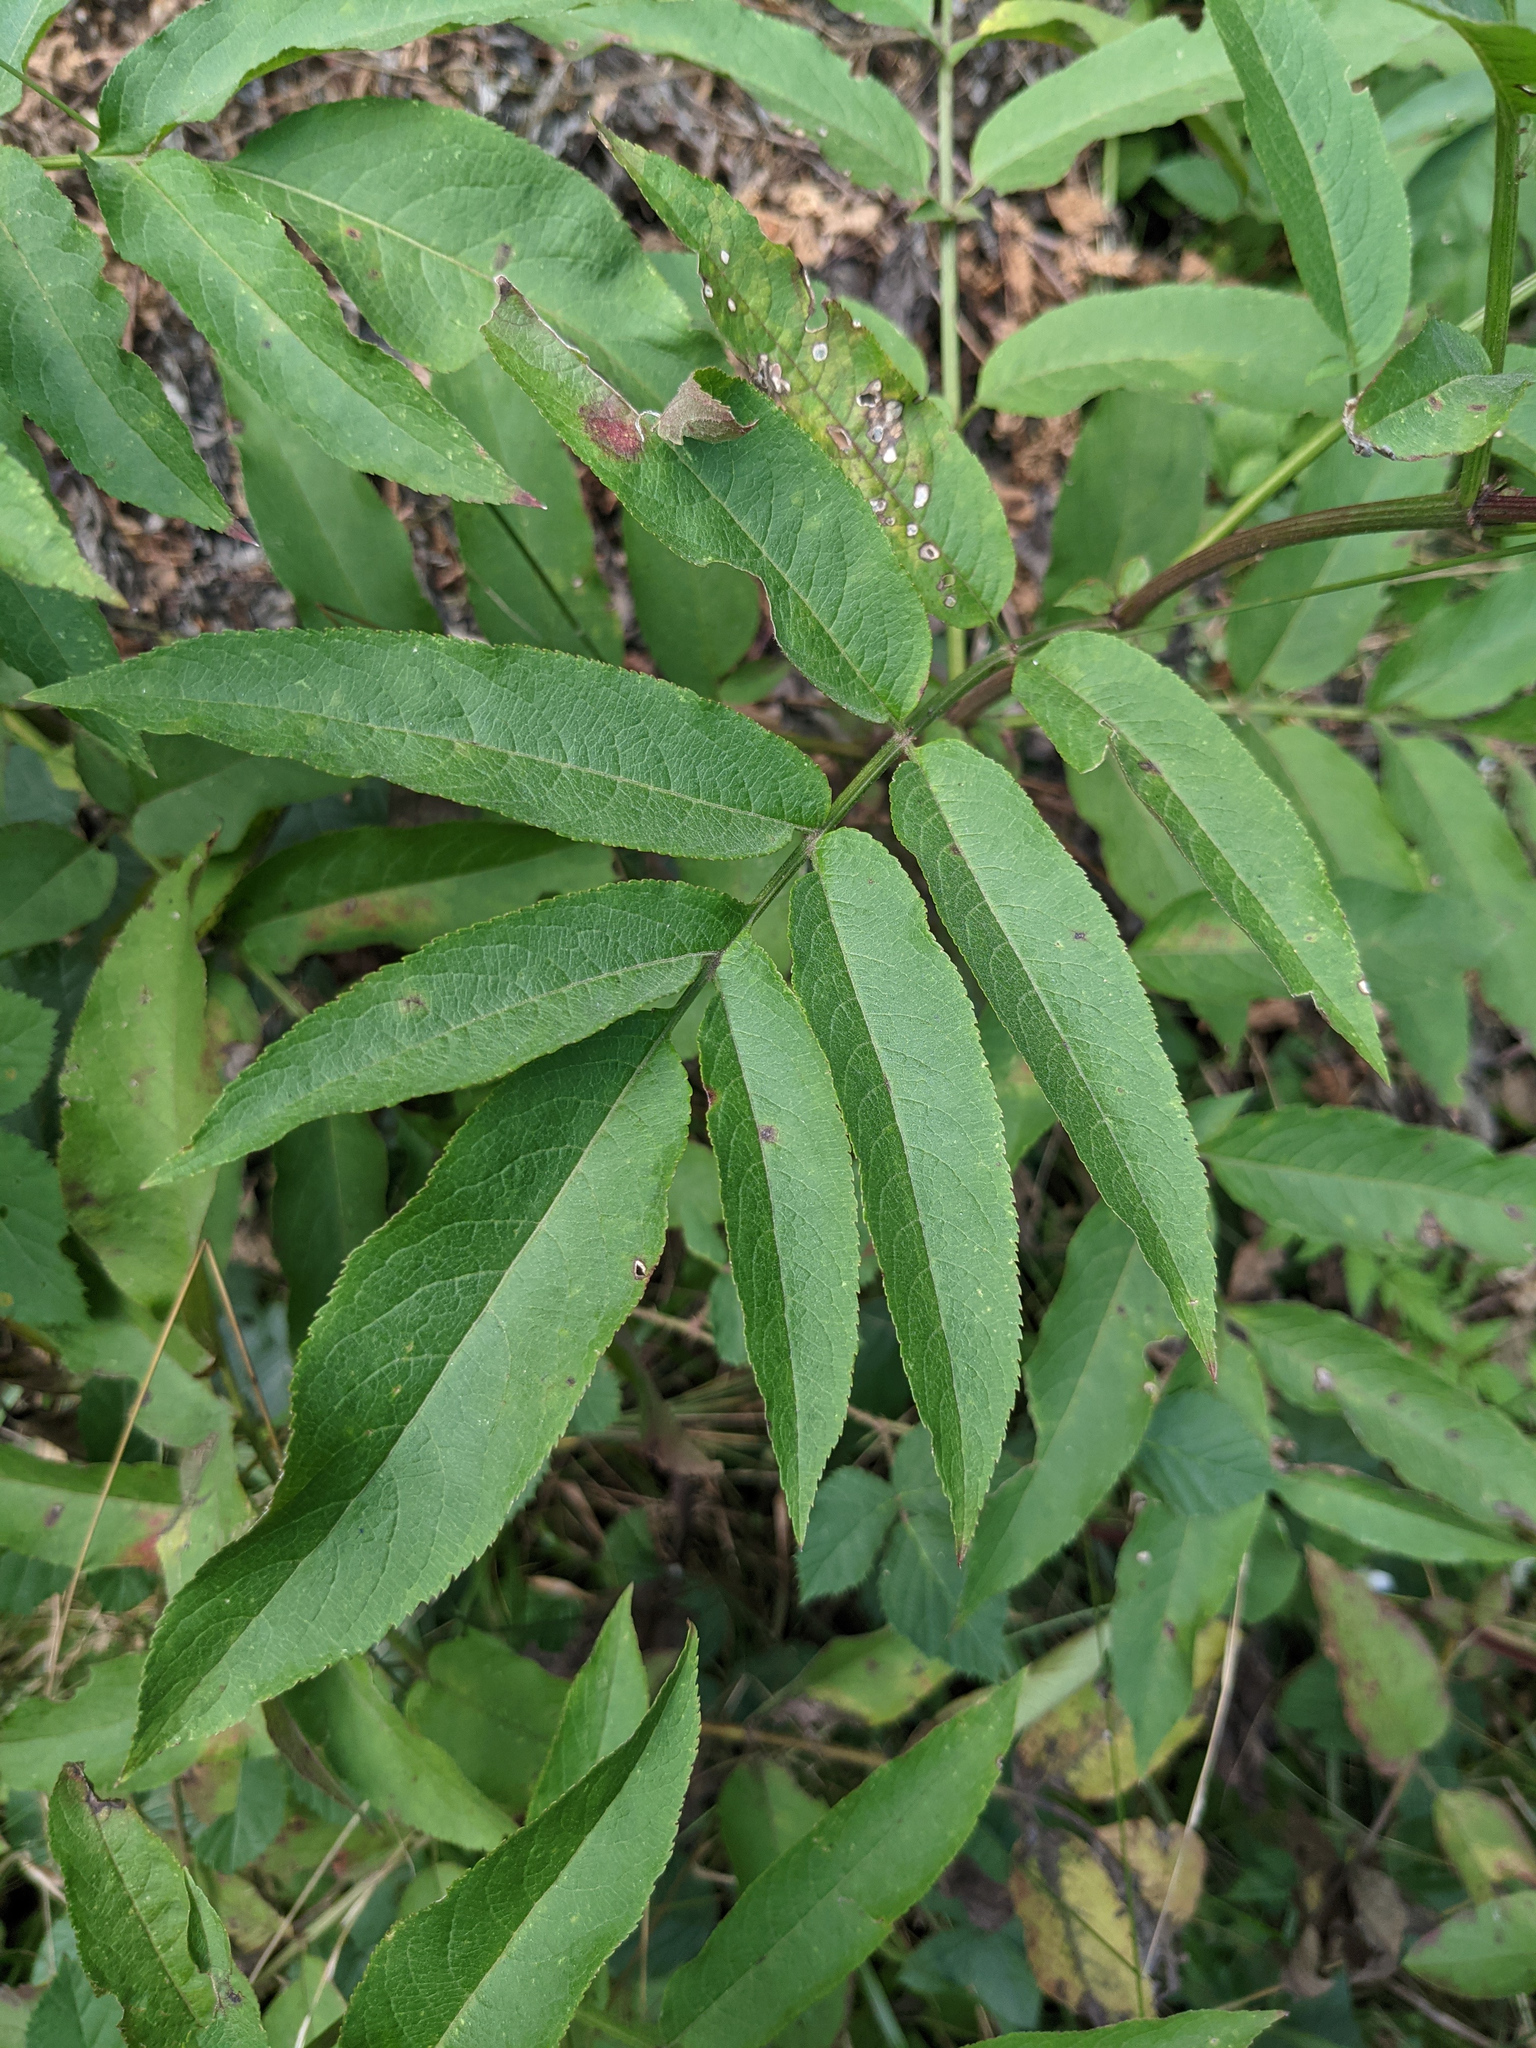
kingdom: Plantae
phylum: Tracheophyta
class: Magnoliopsida
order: Dipsacales
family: Viburnaceae
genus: Sambucus
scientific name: Sambucus ebulus
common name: Dwarf elder
